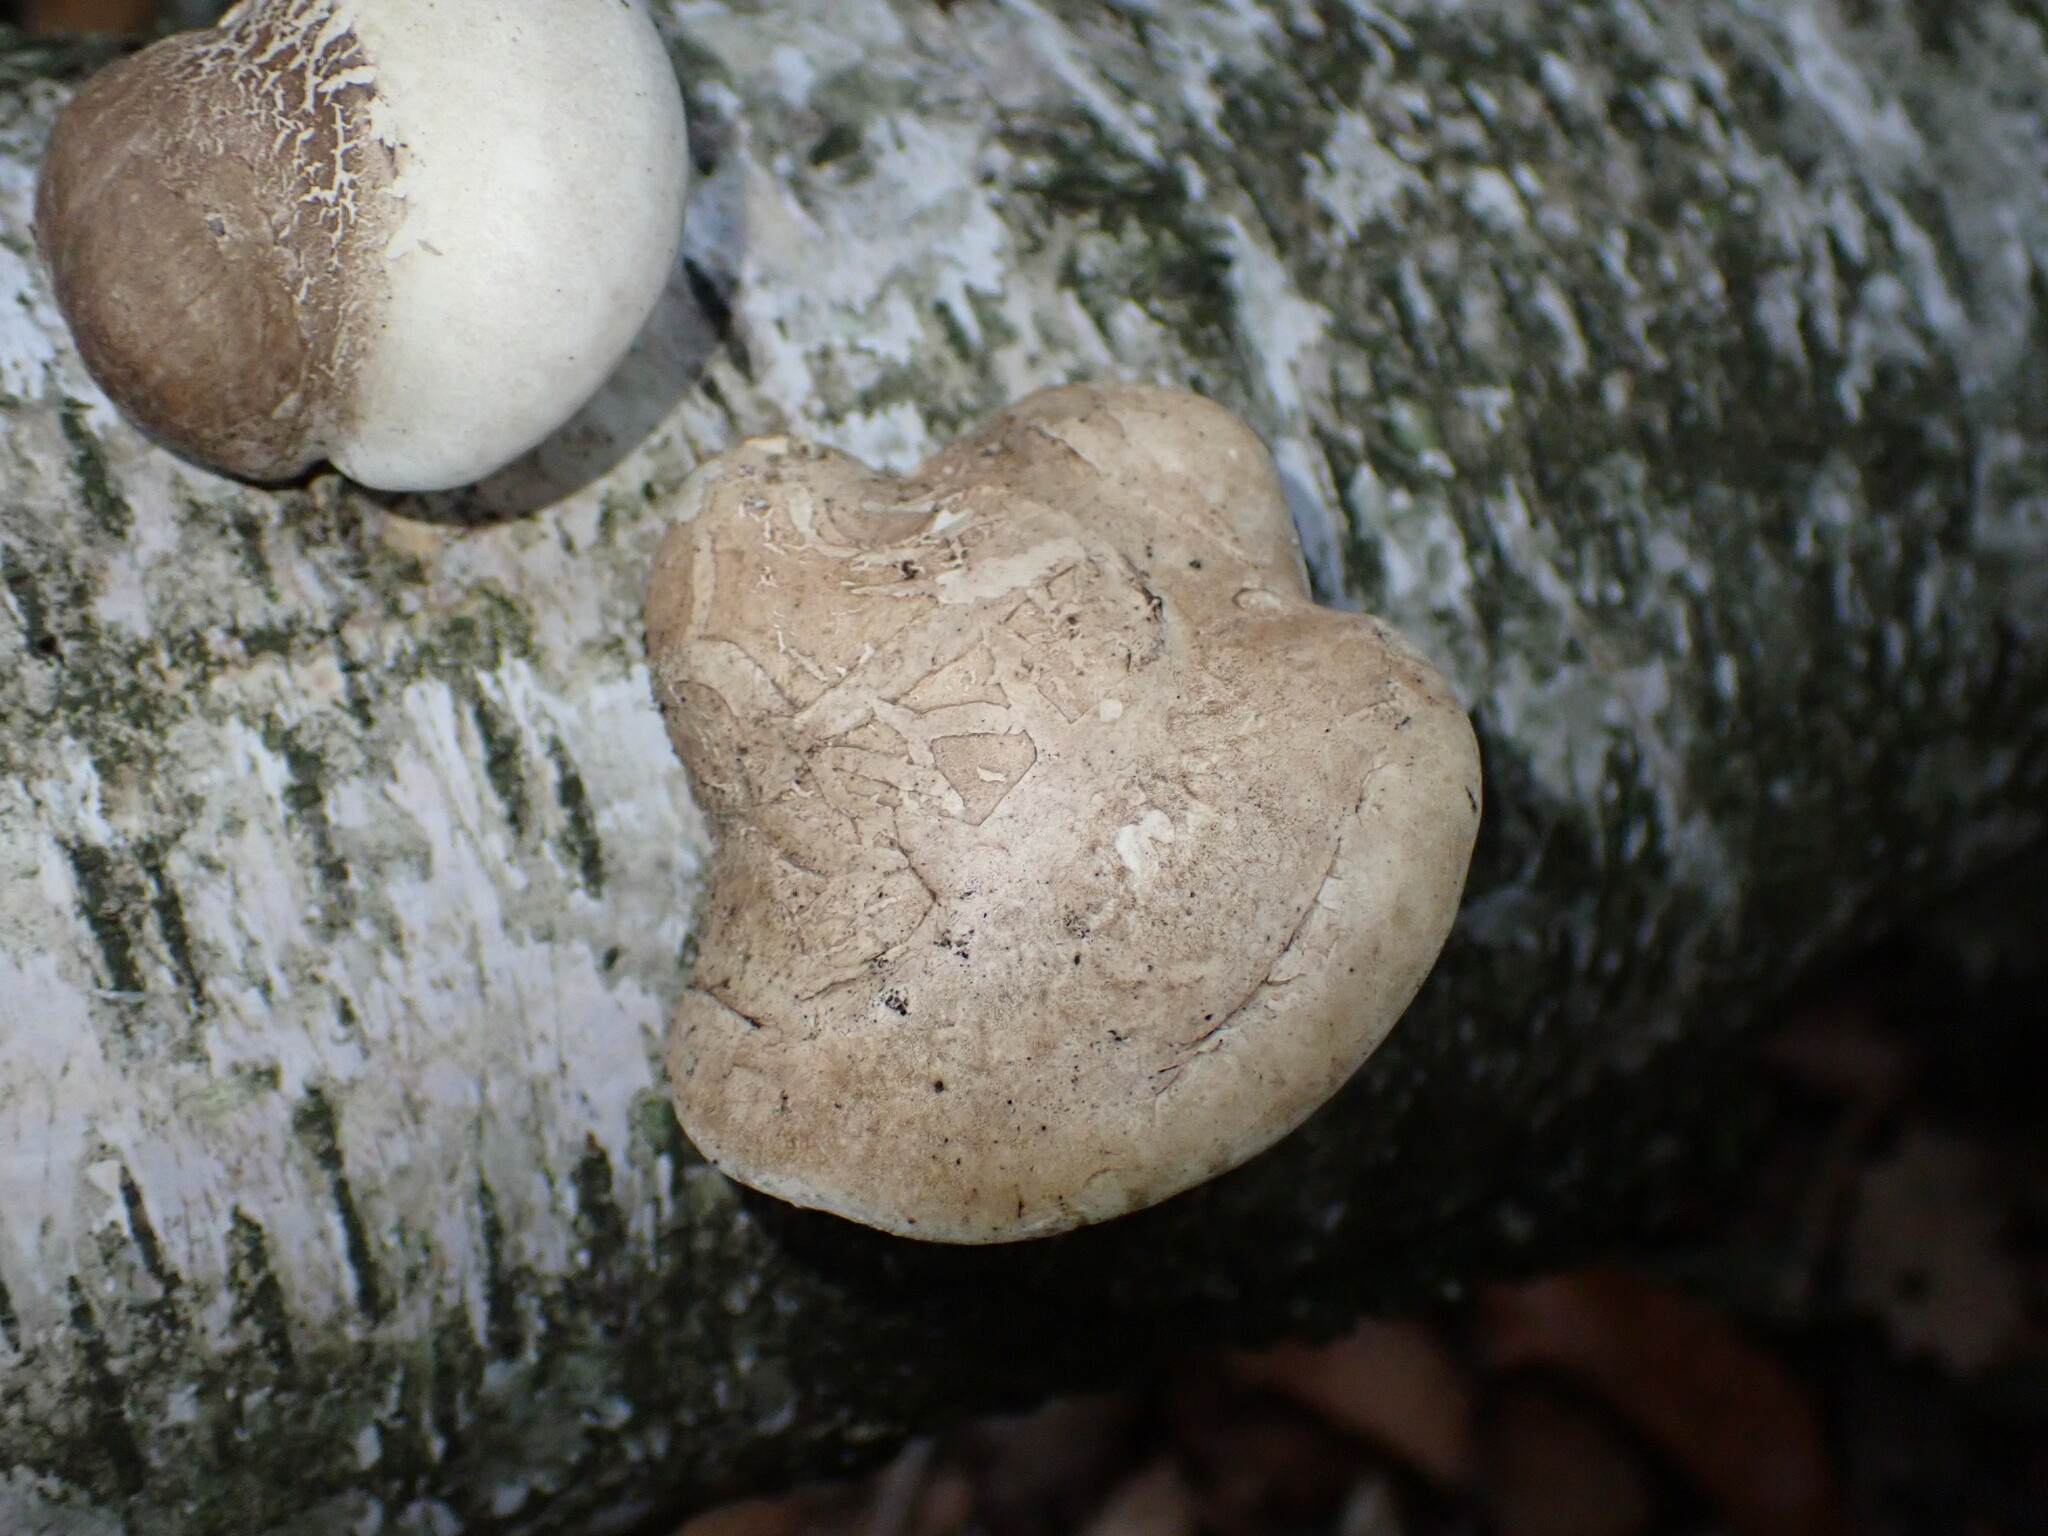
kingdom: Fungi
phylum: Basidiomycota
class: Agaricomycetes
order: Polyporales
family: Fomitopsidaceae
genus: Fomitopsis
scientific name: Fomitopsis betulina
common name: Birch polypore
